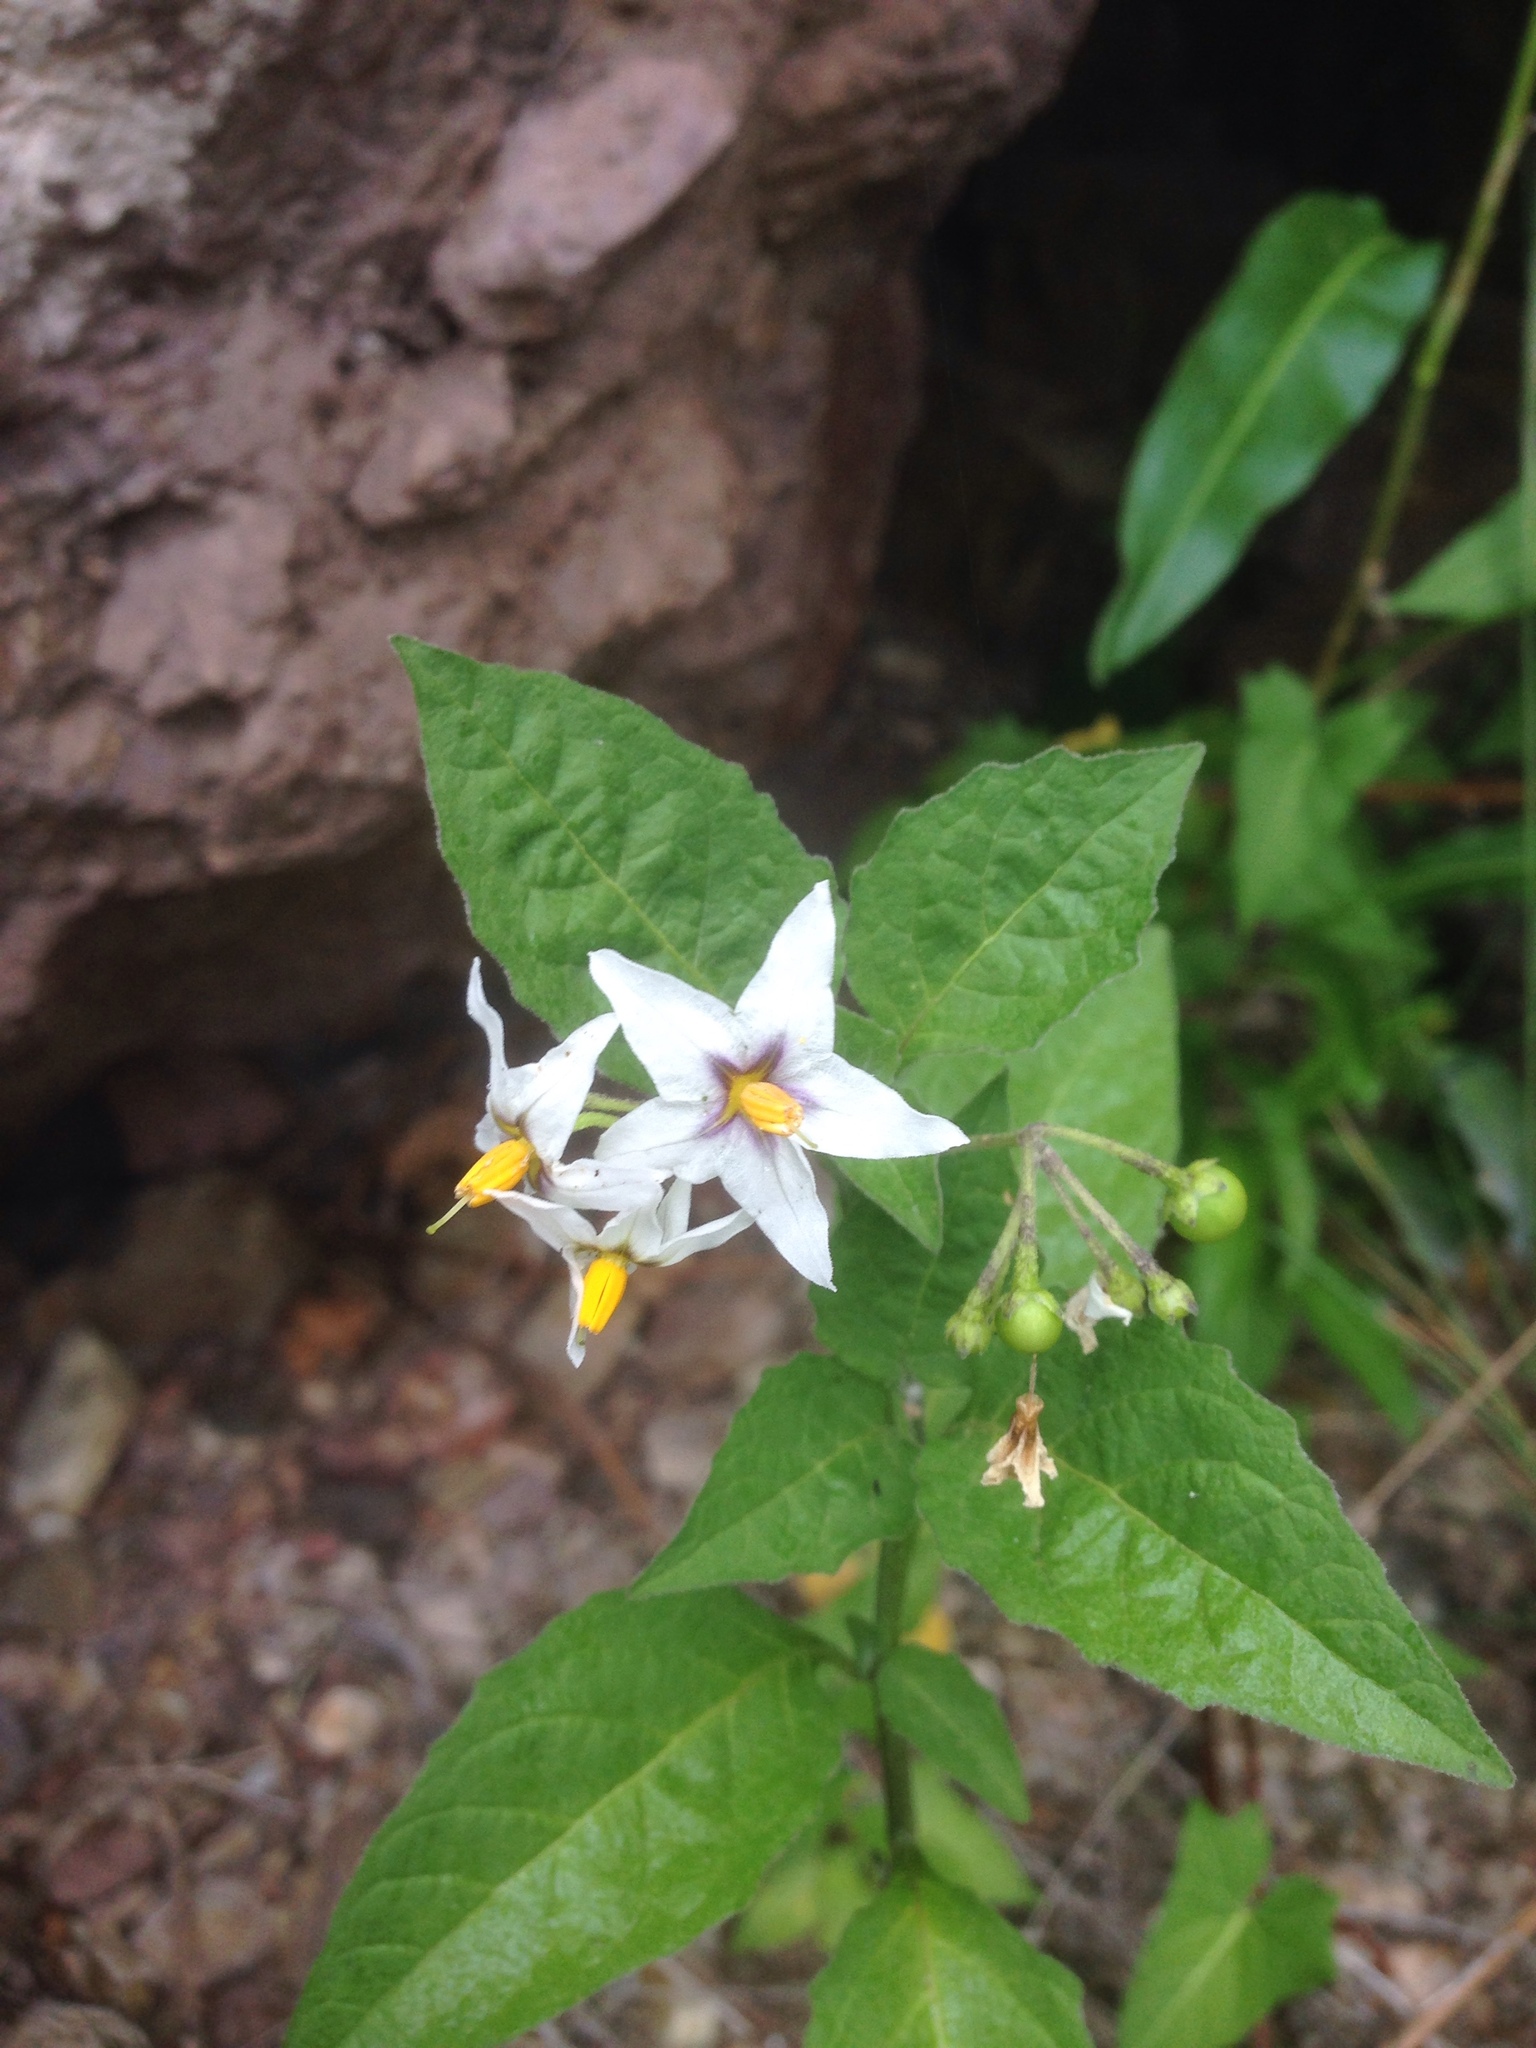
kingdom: Plantae
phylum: Tracheophyta
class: Magnoliopsida
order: Solanales
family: Solanaceae
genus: Solanum
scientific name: Solanum douglasii
